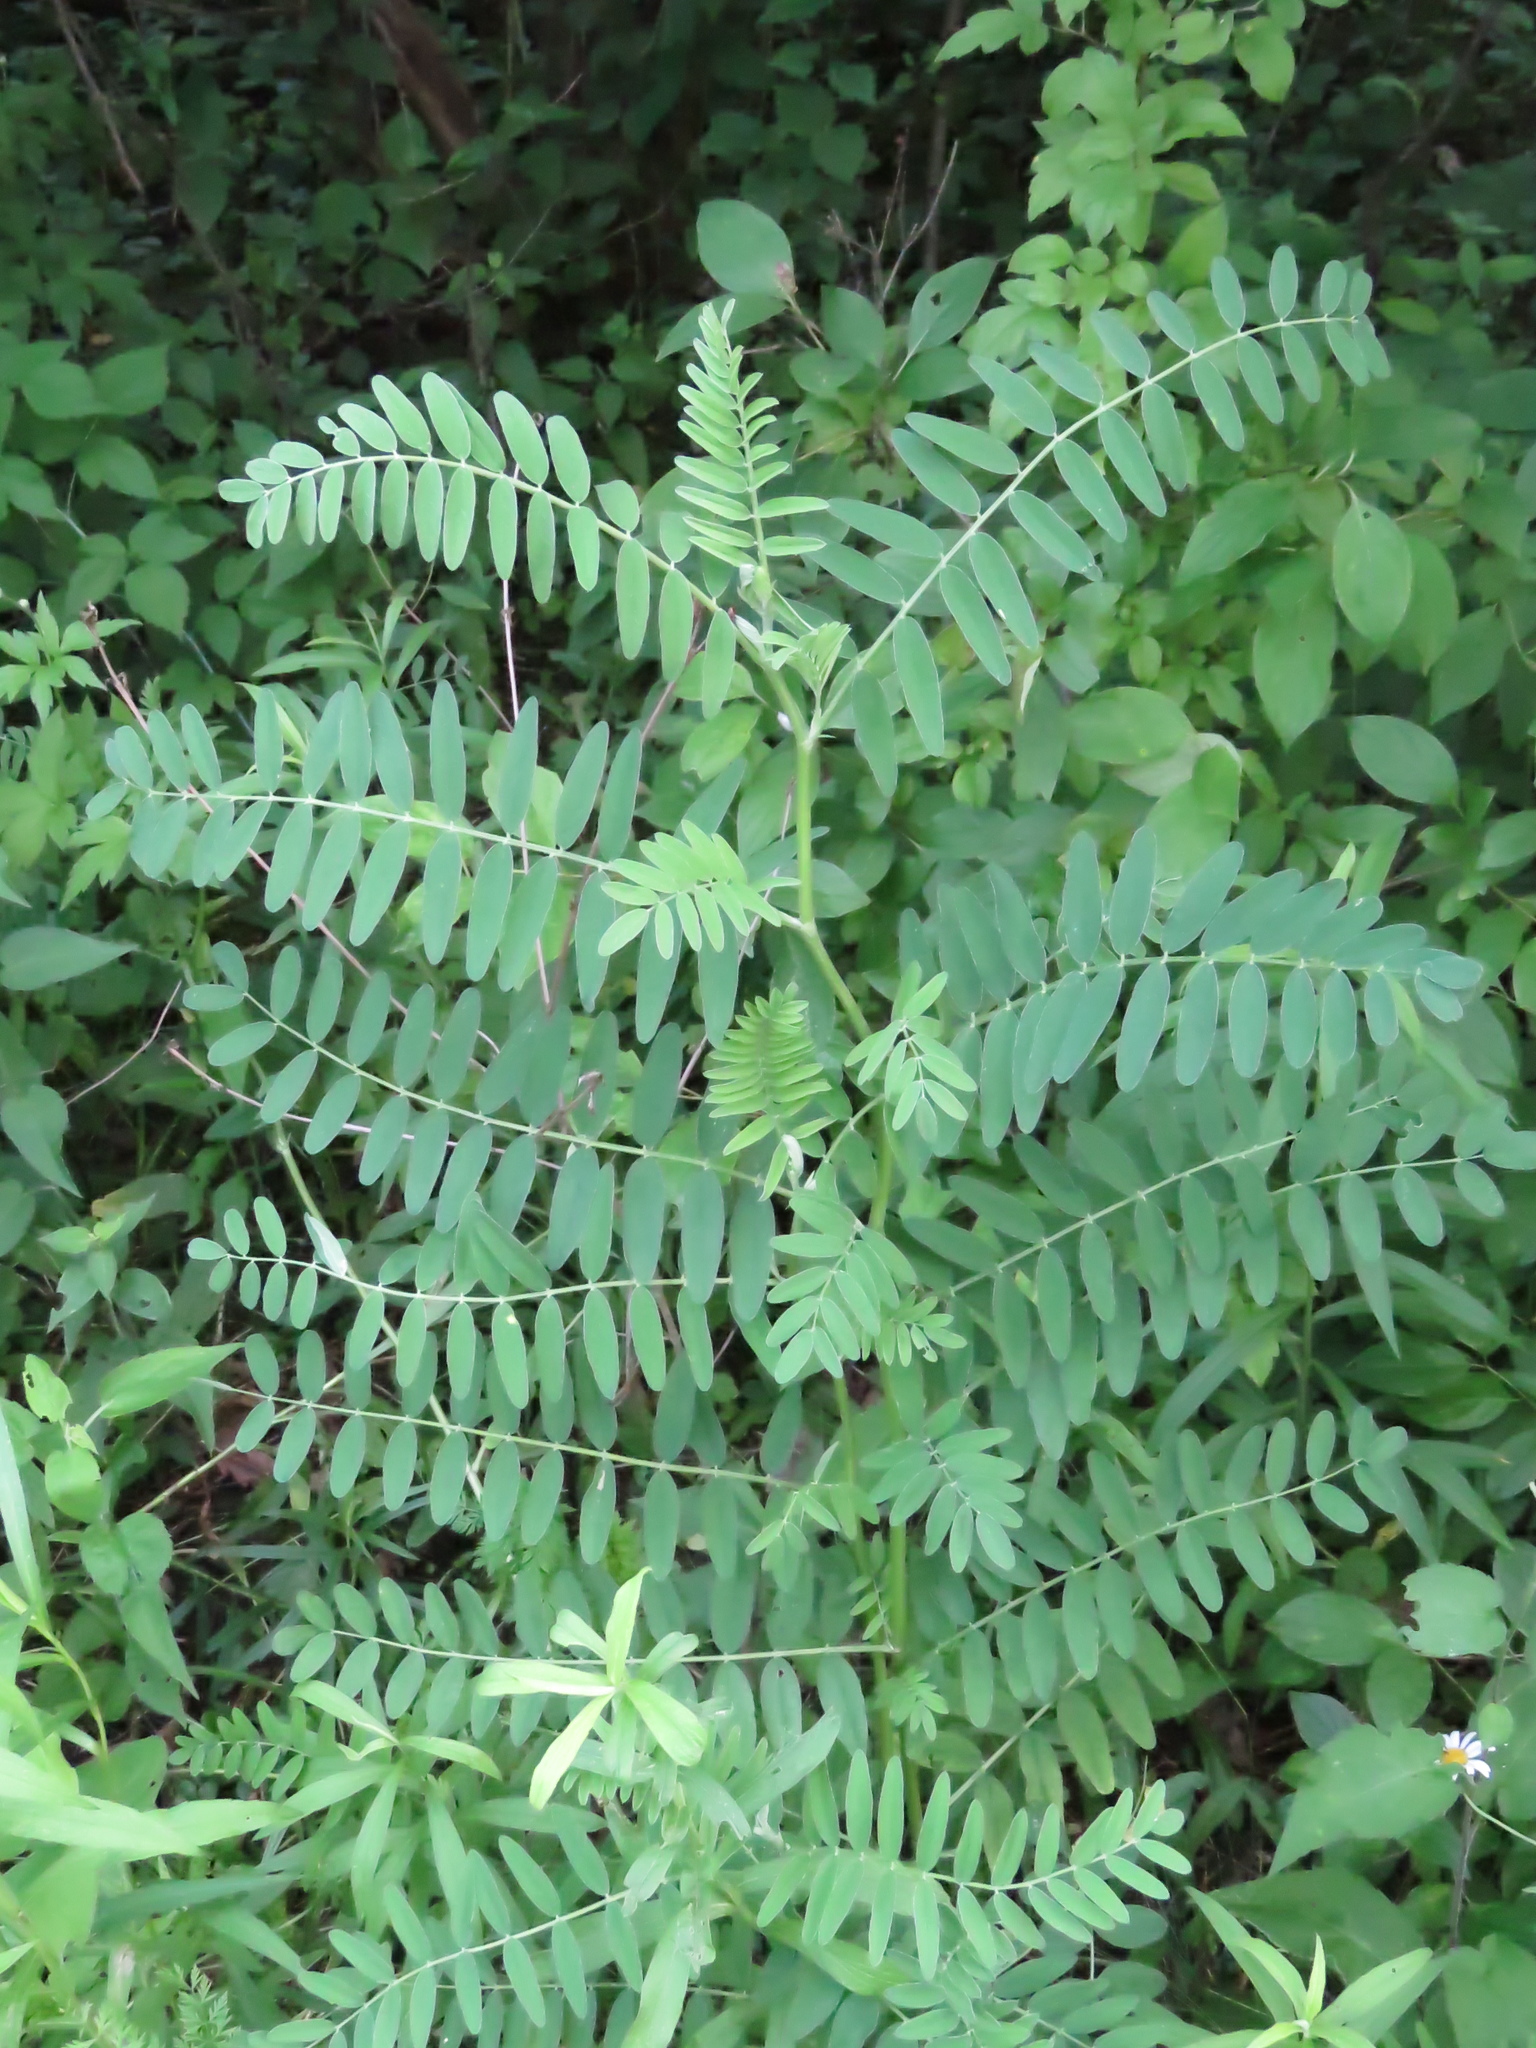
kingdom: Plantae
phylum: Tracheophyta
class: Magnoliopsida
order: Fabales
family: Fabaceae
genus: Astragalus
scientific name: Astragalus canadensis
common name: Canada milk-vetch
